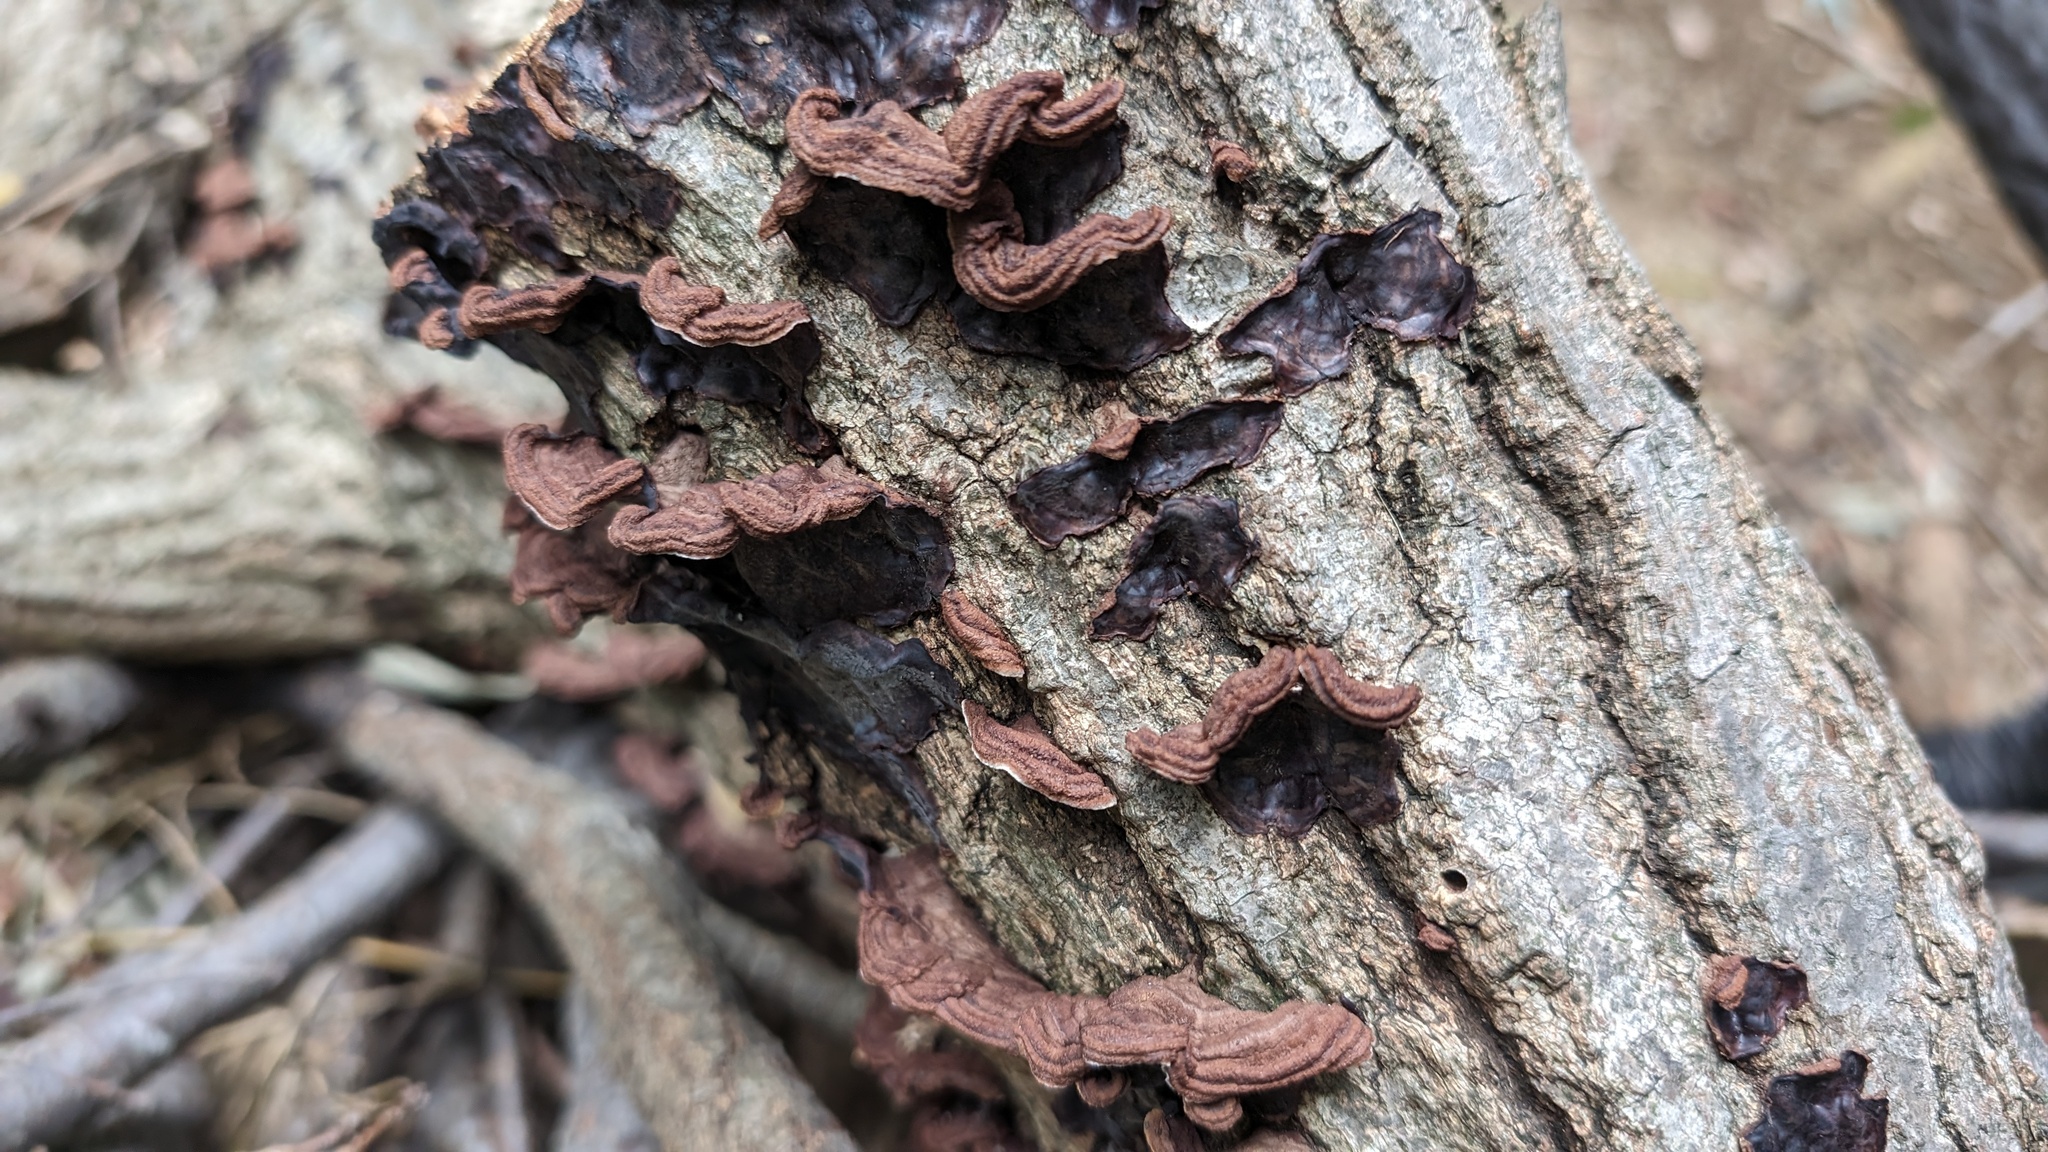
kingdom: Fungi
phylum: Basidiomycota
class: Agaricomycetes
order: Corticiales
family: Punctulariaceae
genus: Punctularia
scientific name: Punctularia strigosozonata
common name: White-rot fungus
